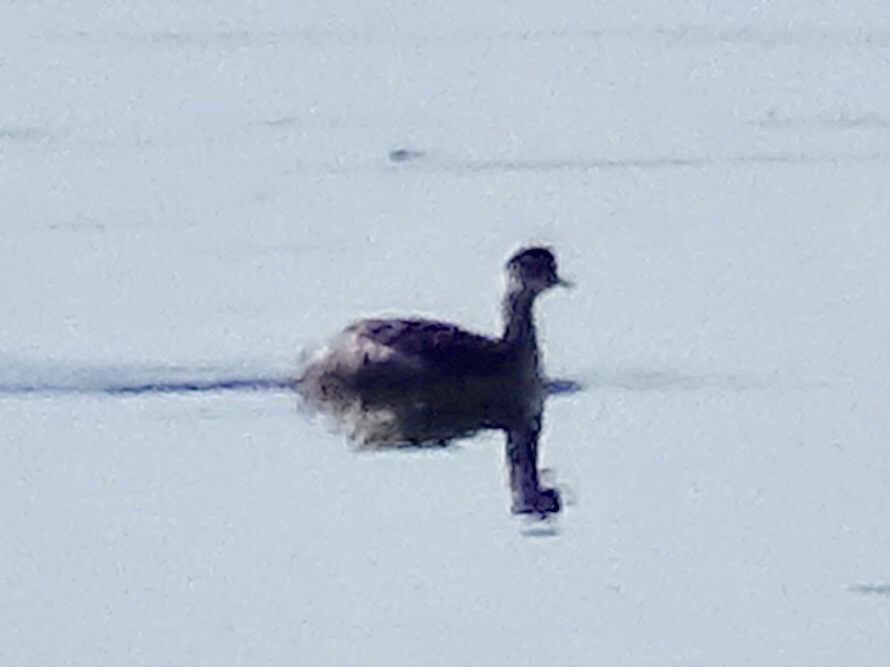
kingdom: Animalia
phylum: Chordata
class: Aves
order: Podicipediformes
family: Podicipedidae
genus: Podiceps
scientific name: Podiceps nigricollis
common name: Black-necked grebe
